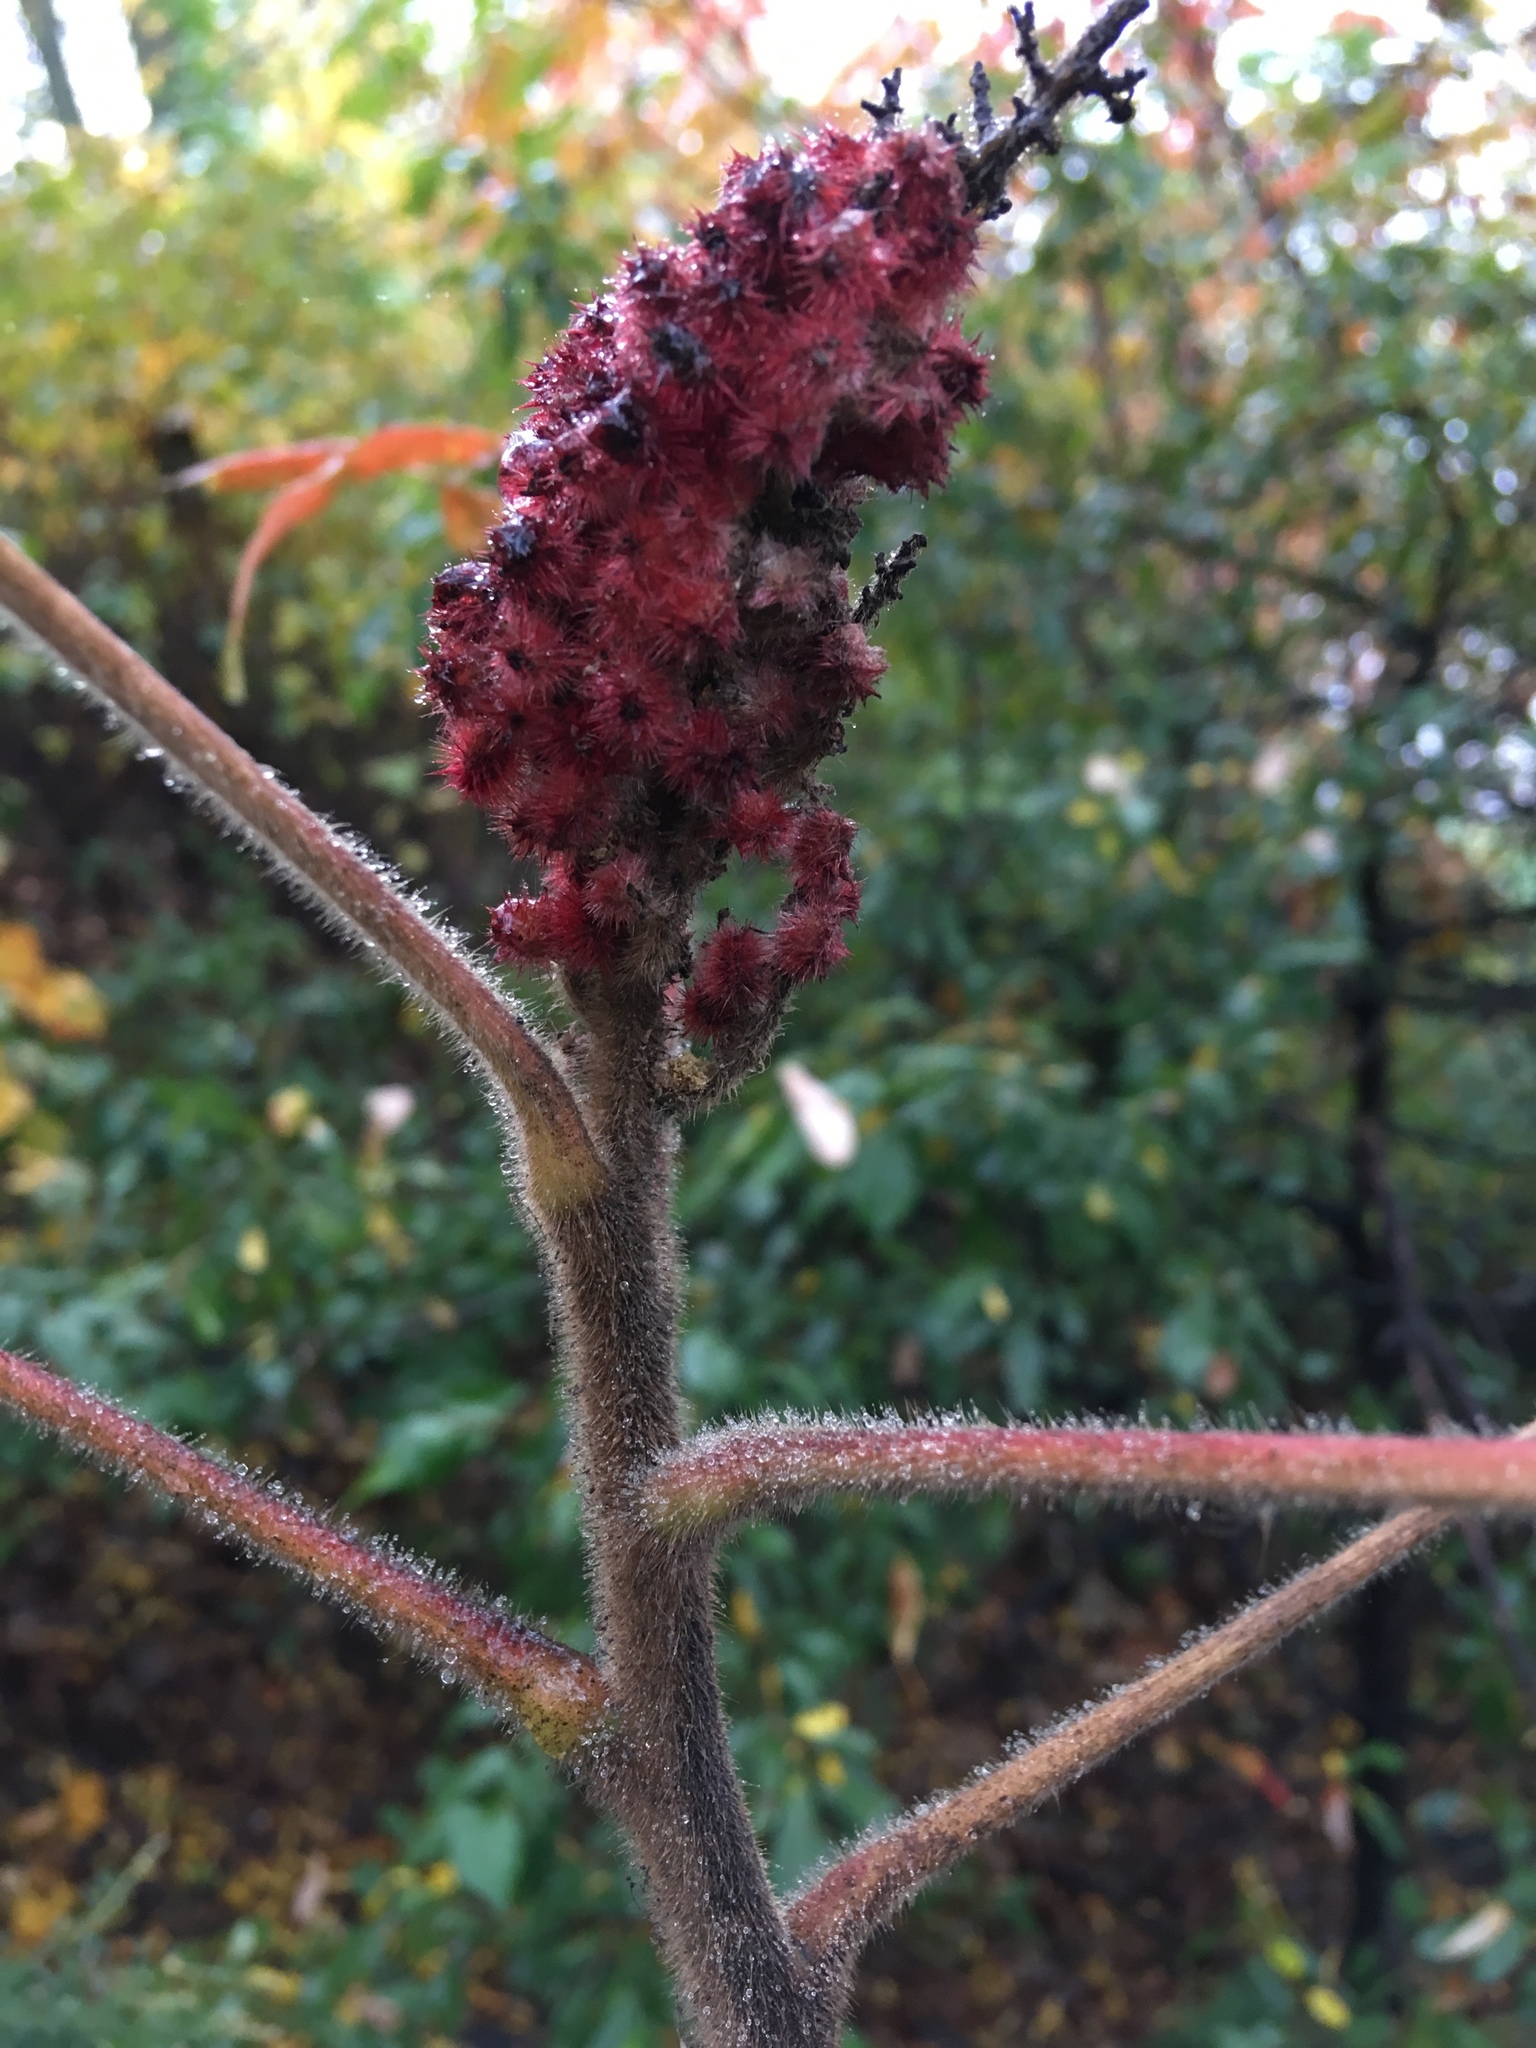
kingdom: Plantae
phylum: Tracheophyta
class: Magnoliopsida
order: Sapindales
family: Anacardiaceae
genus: Rhus
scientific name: Rhus typhina
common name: Staghorn sumac
